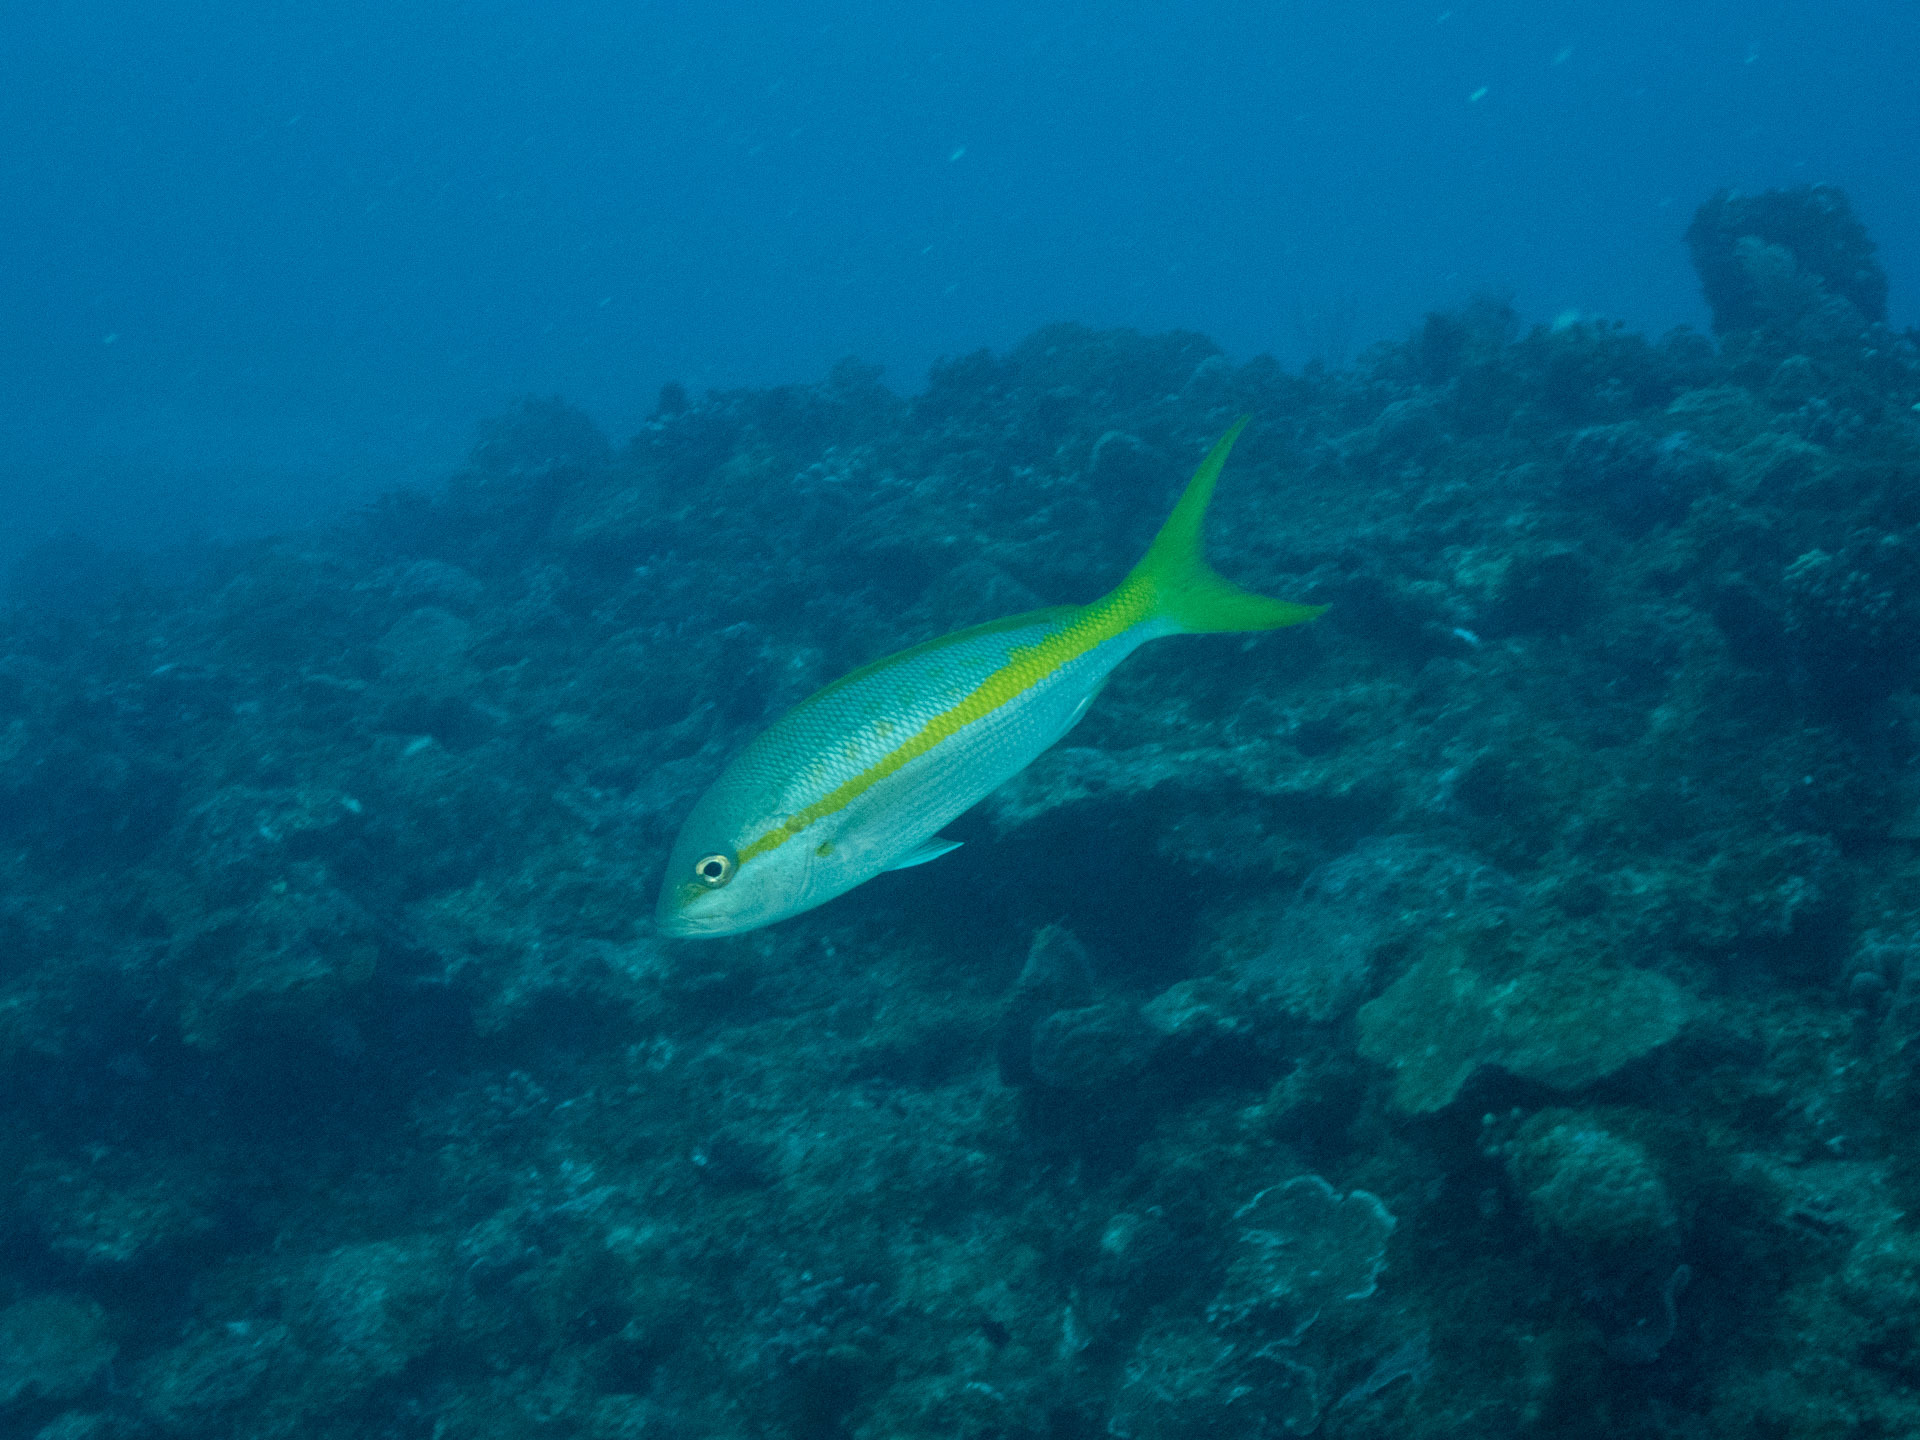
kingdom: Animalia
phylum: Chordata
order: Perciformes
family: Lutjanidae
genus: Ocyurus
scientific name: Ocyurus chrysurus
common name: Yellowtail snapper
